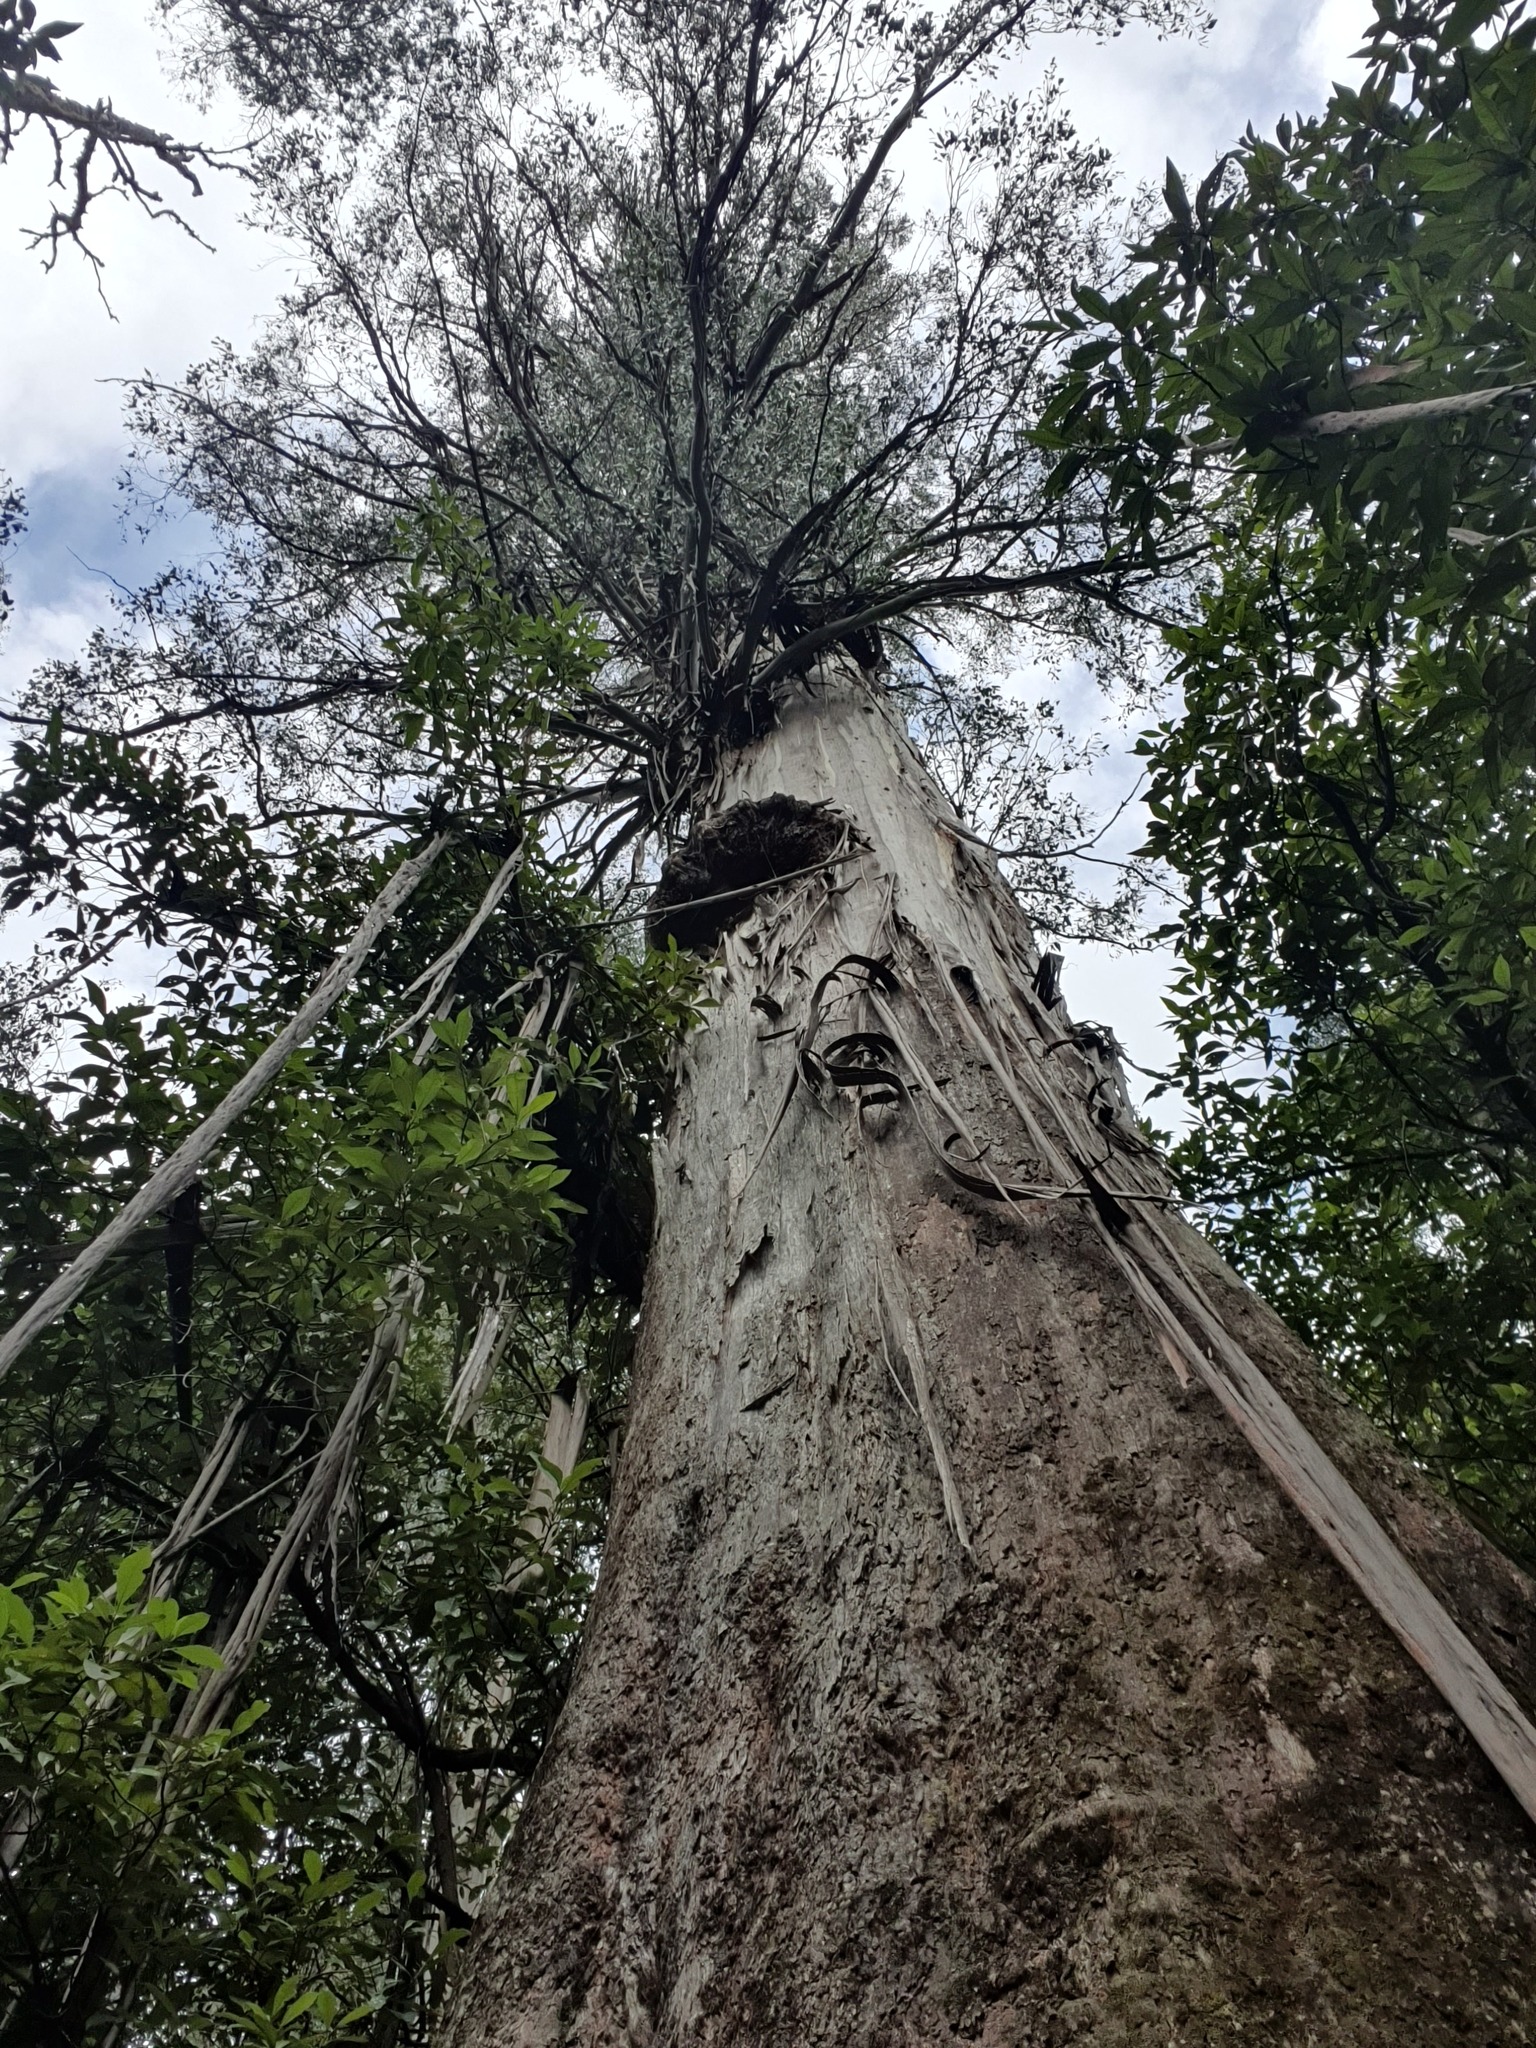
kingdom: Plantae
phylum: Tracheophyta
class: Magnoliopsida
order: Myrtales
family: Myrtaceae
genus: Eucalyptus
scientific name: Eucalyptus regnans
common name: Stringy gum
